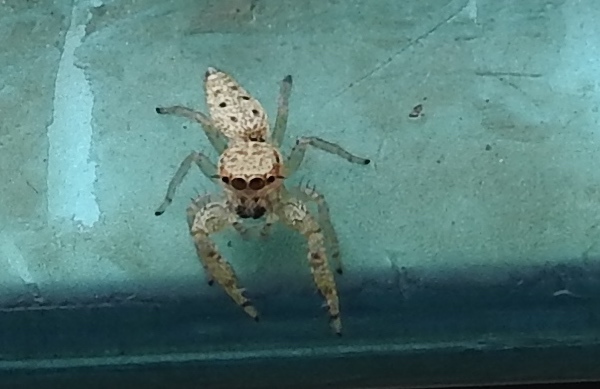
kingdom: Animalia
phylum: Arthropoda
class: Arachnida
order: Araneae
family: Salticidae
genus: Hentzia
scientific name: Hentzia
